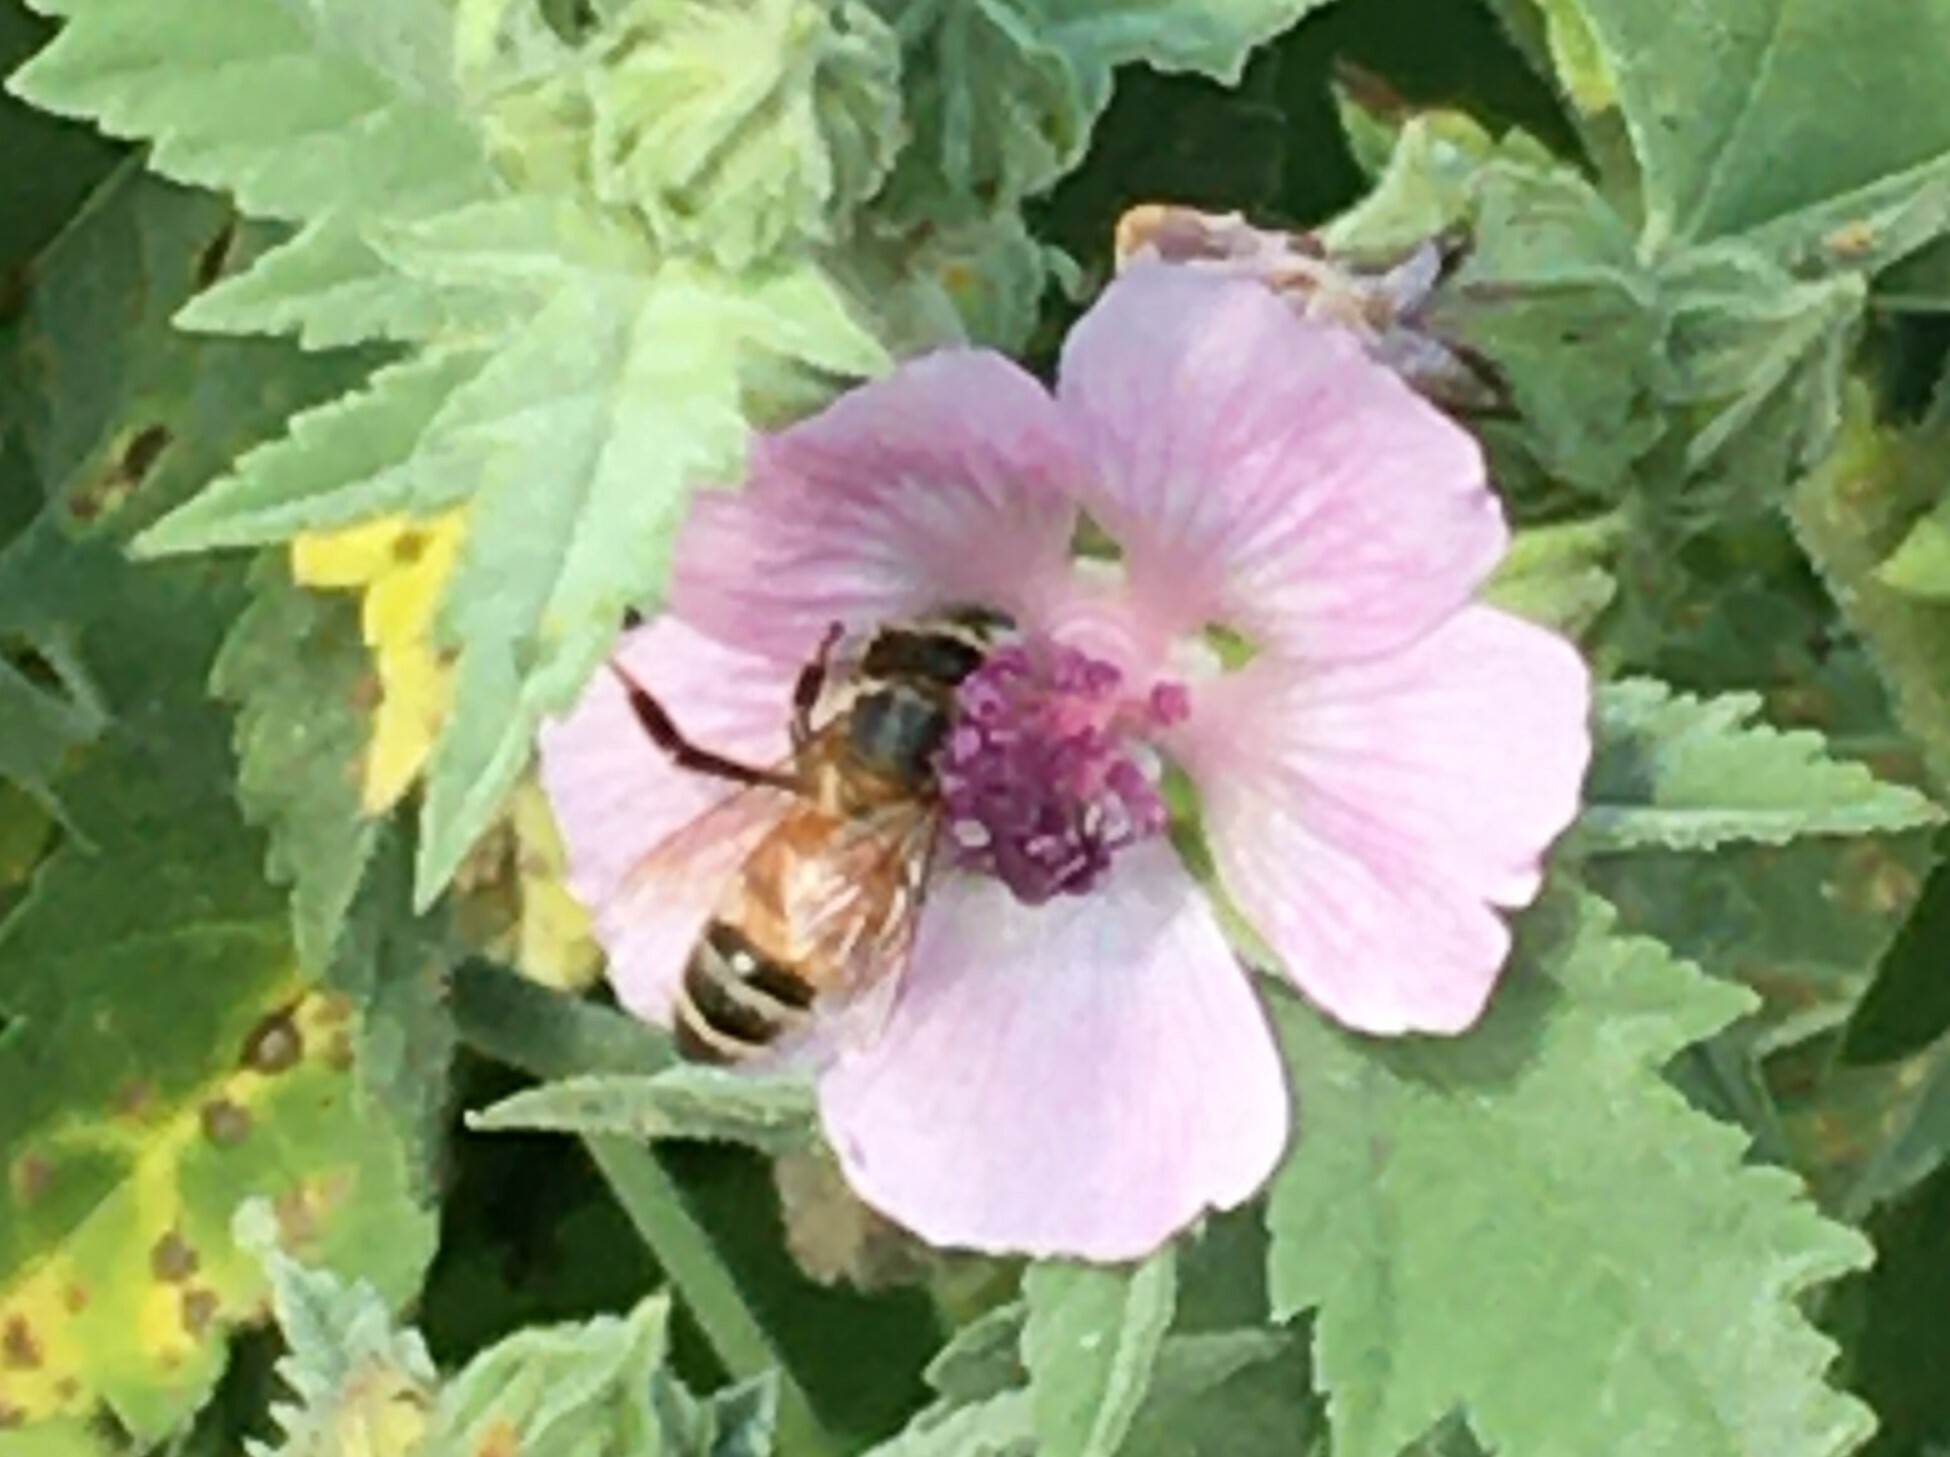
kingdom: Animalia
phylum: Arthropoda
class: Insecta
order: Hymenoptera
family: Apidae
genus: Apis
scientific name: Apis mellifera
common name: Honey bee
